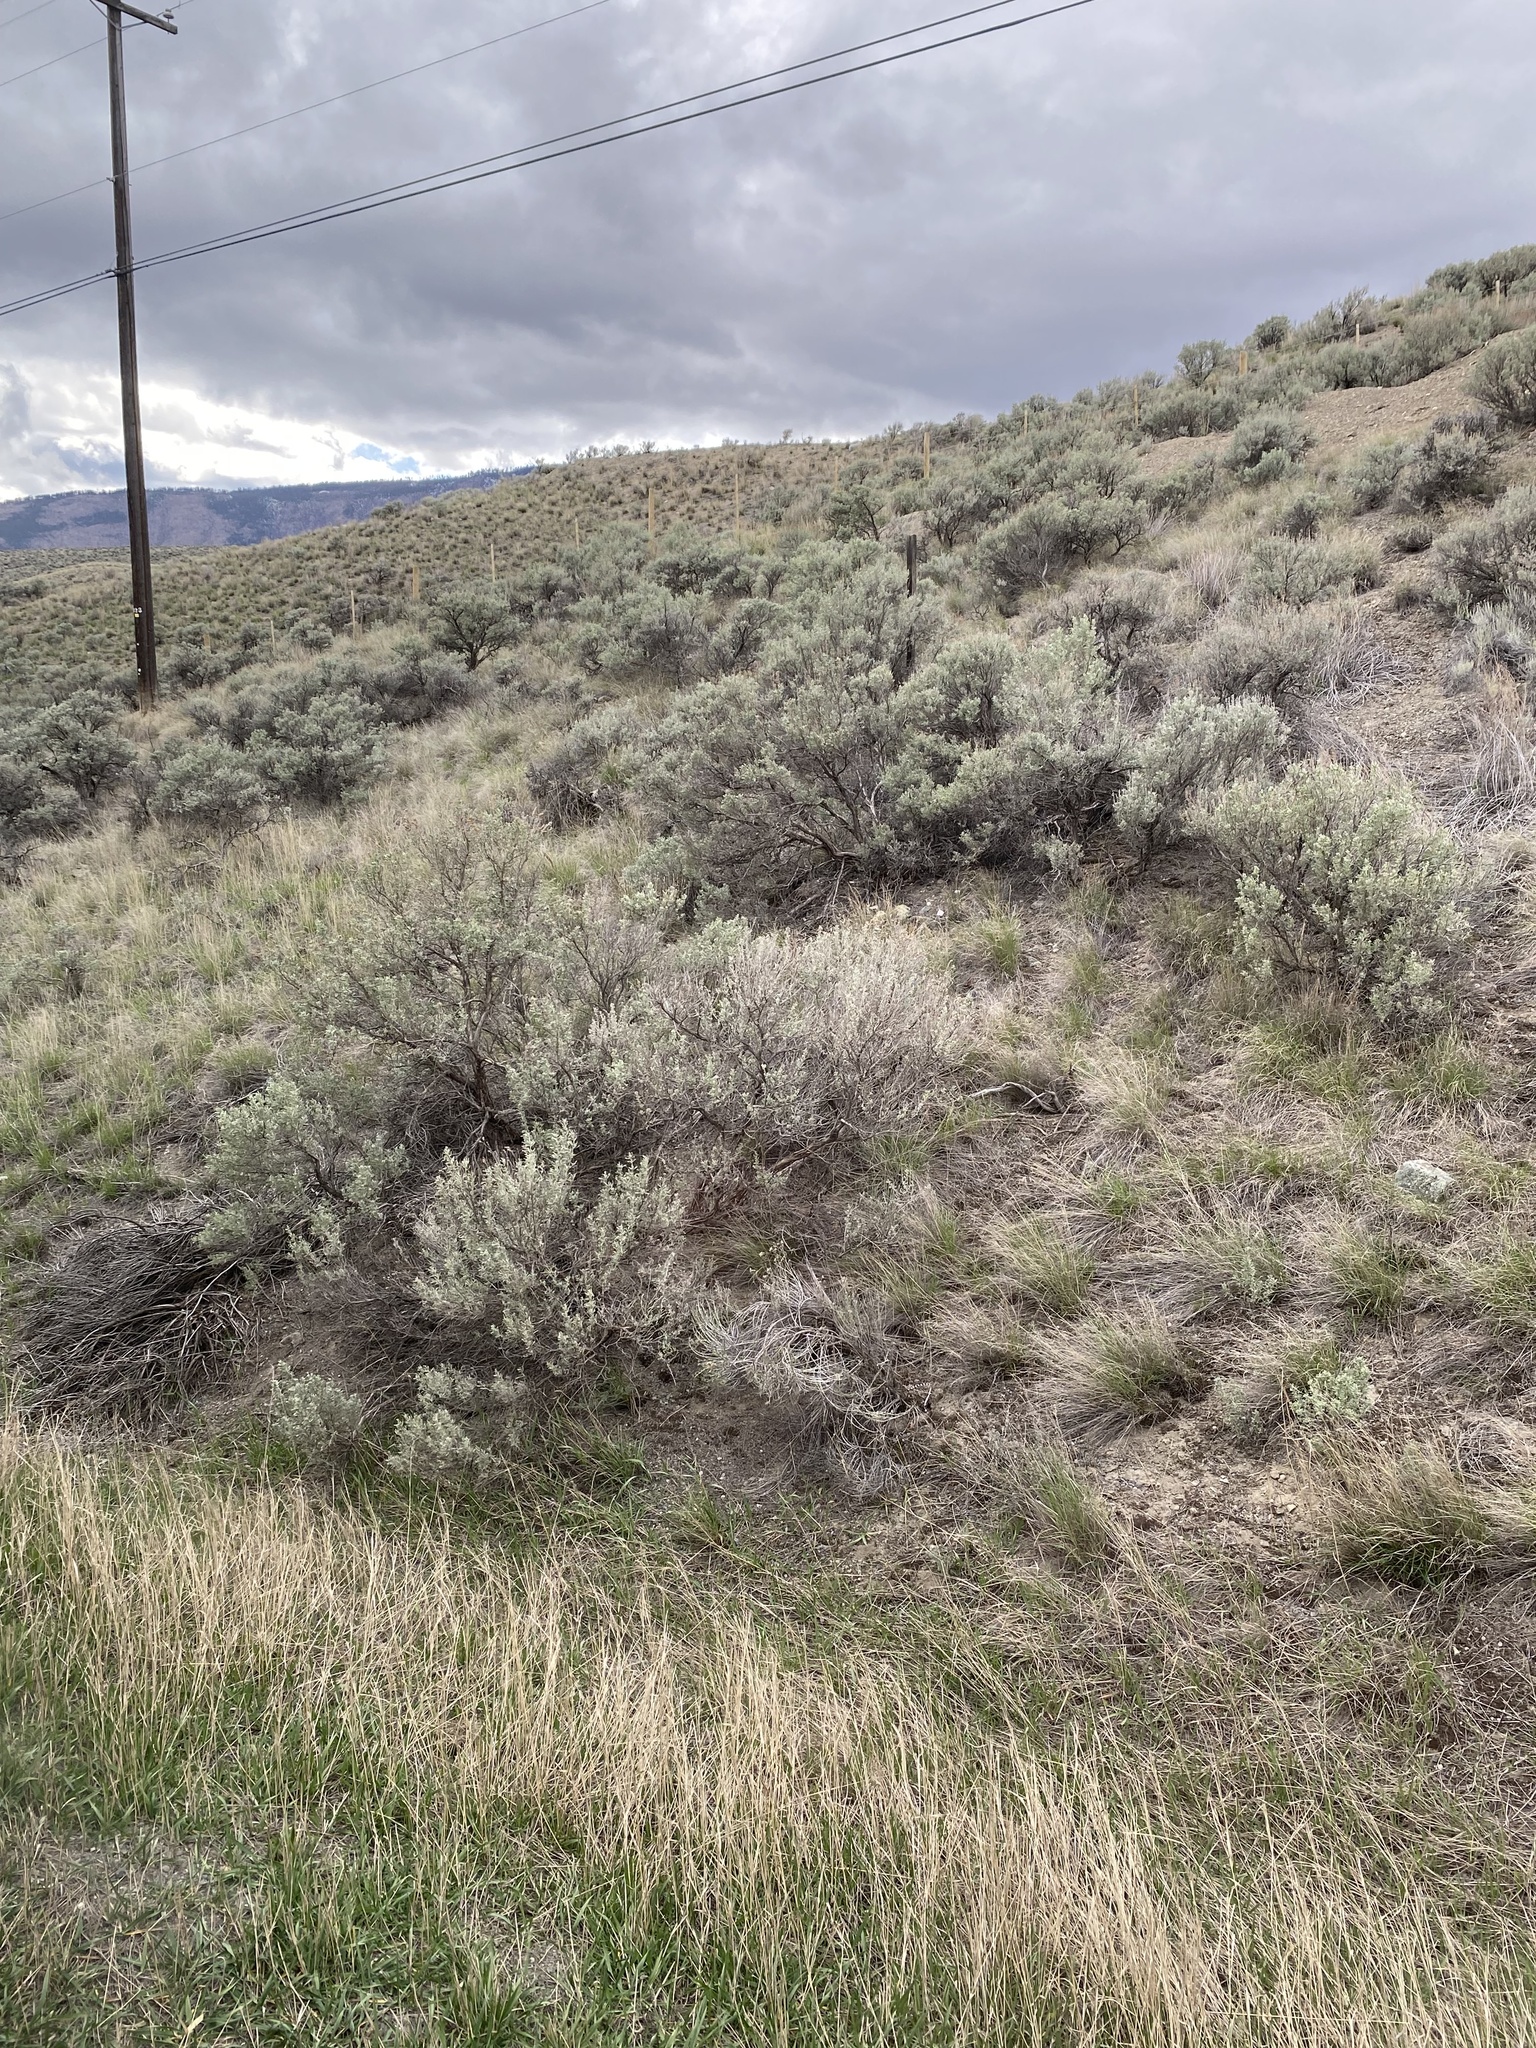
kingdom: Plantae
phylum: Tracheophyta
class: Magnoliopsida
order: Asterales
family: Asteraceae
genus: Artemisia
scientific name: Artemisia tridentata
